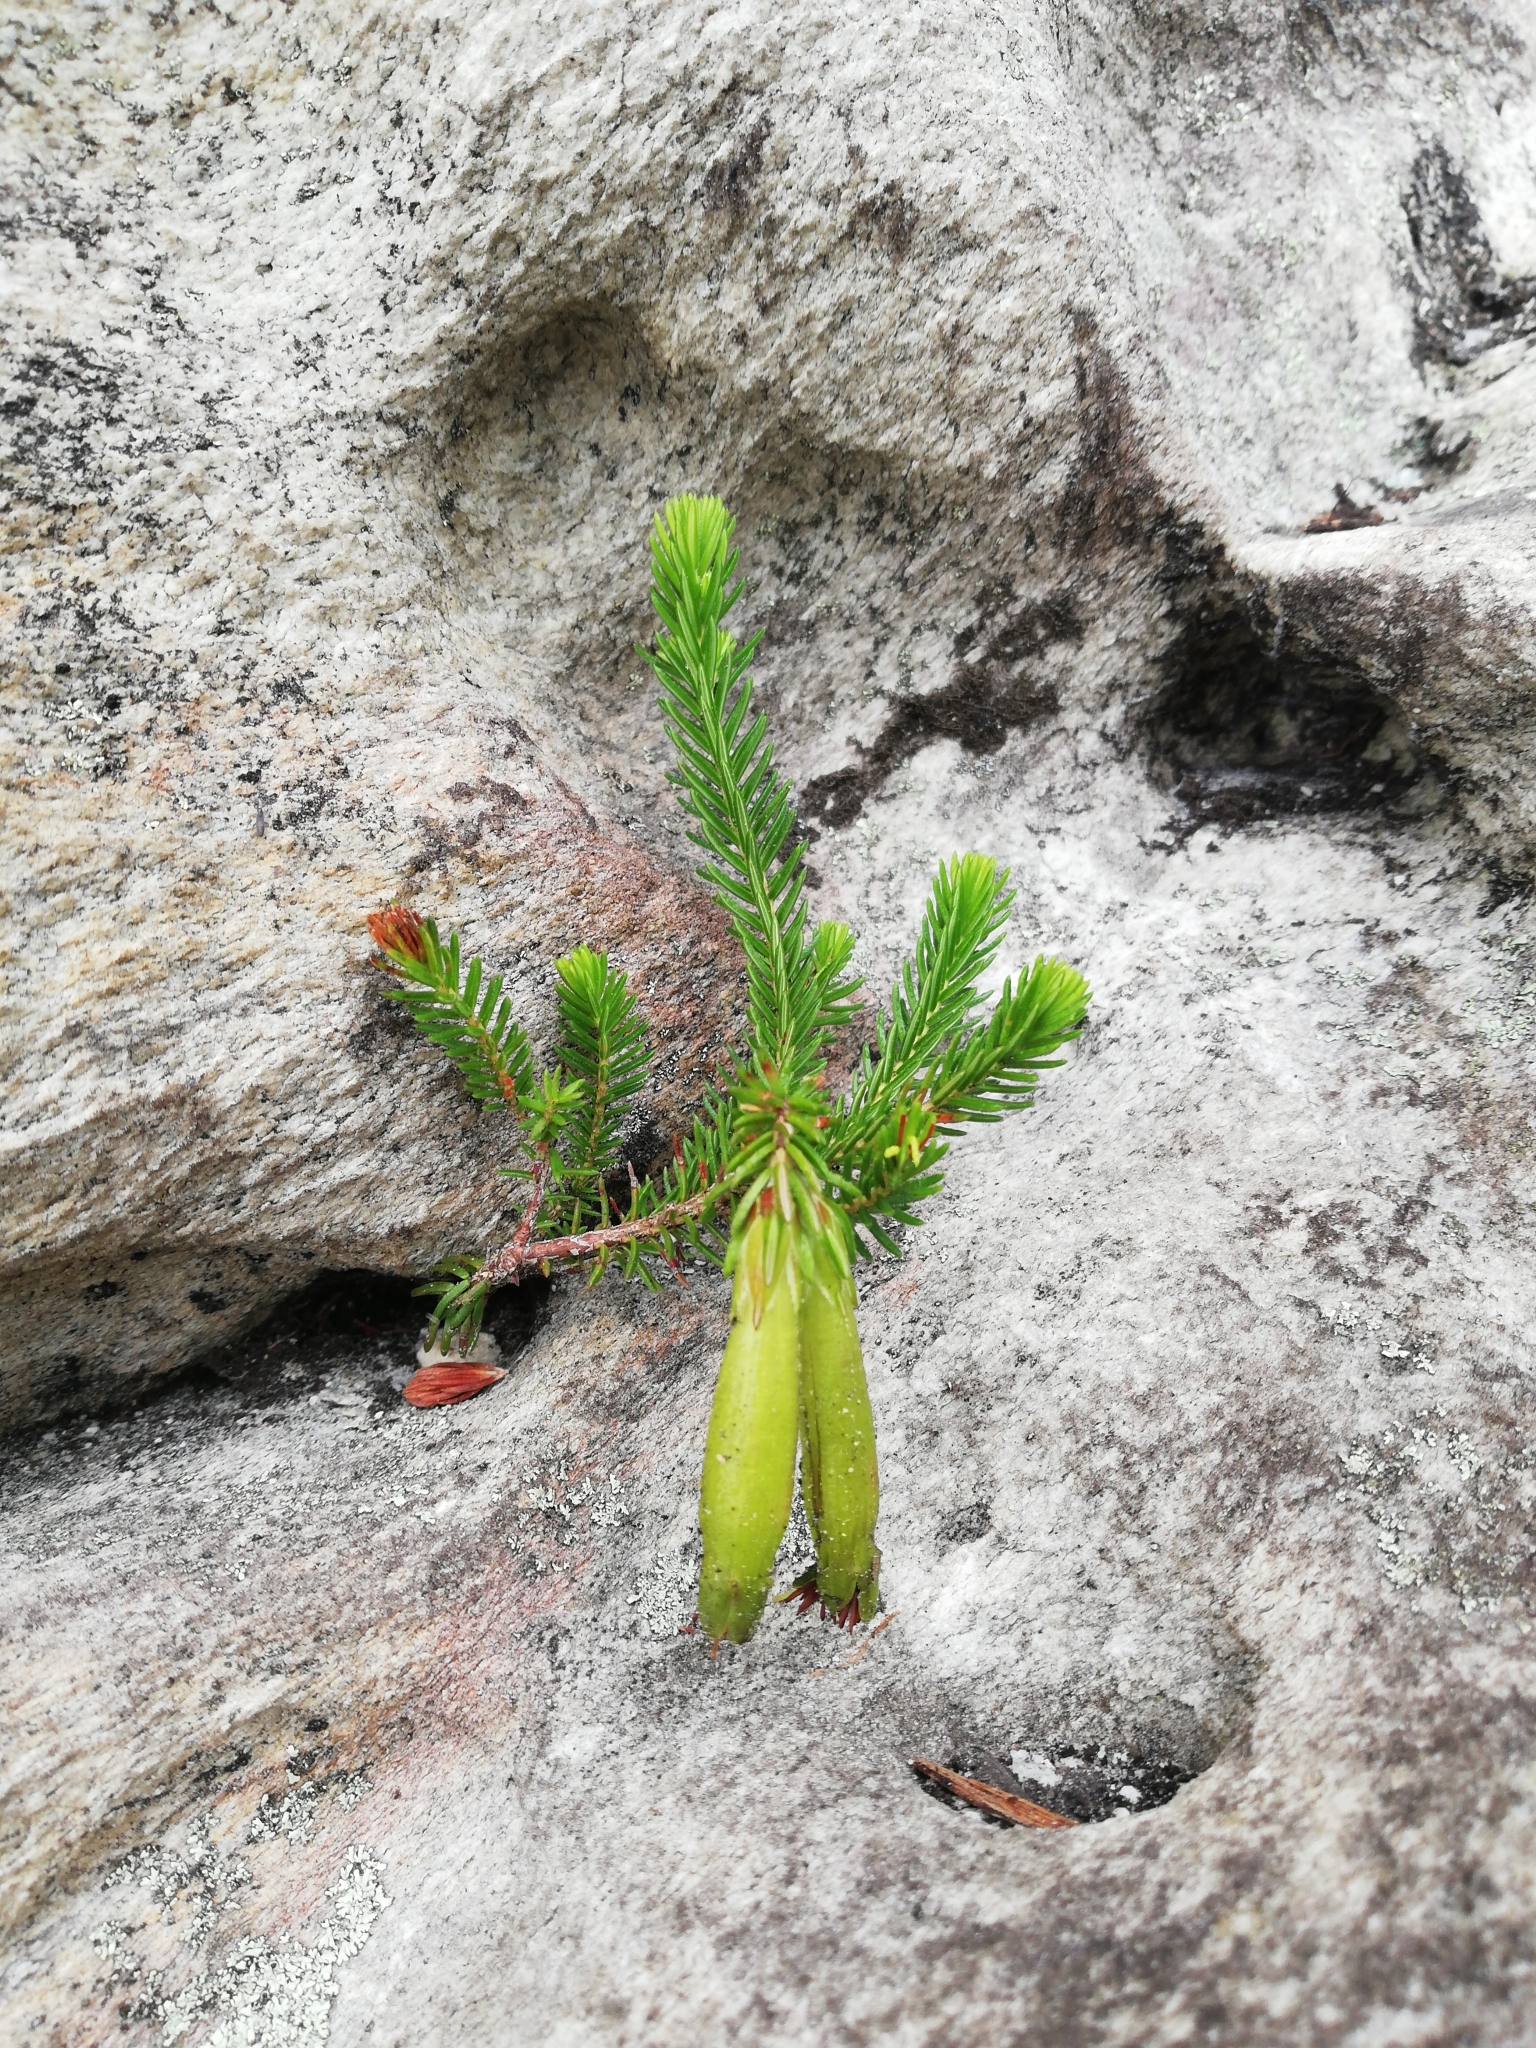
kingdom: Plantae
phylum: Tracheophyta
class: Magnoliopsida
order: Ericales
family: Ericaceae
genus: Erica
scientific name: Erica viridiflora
